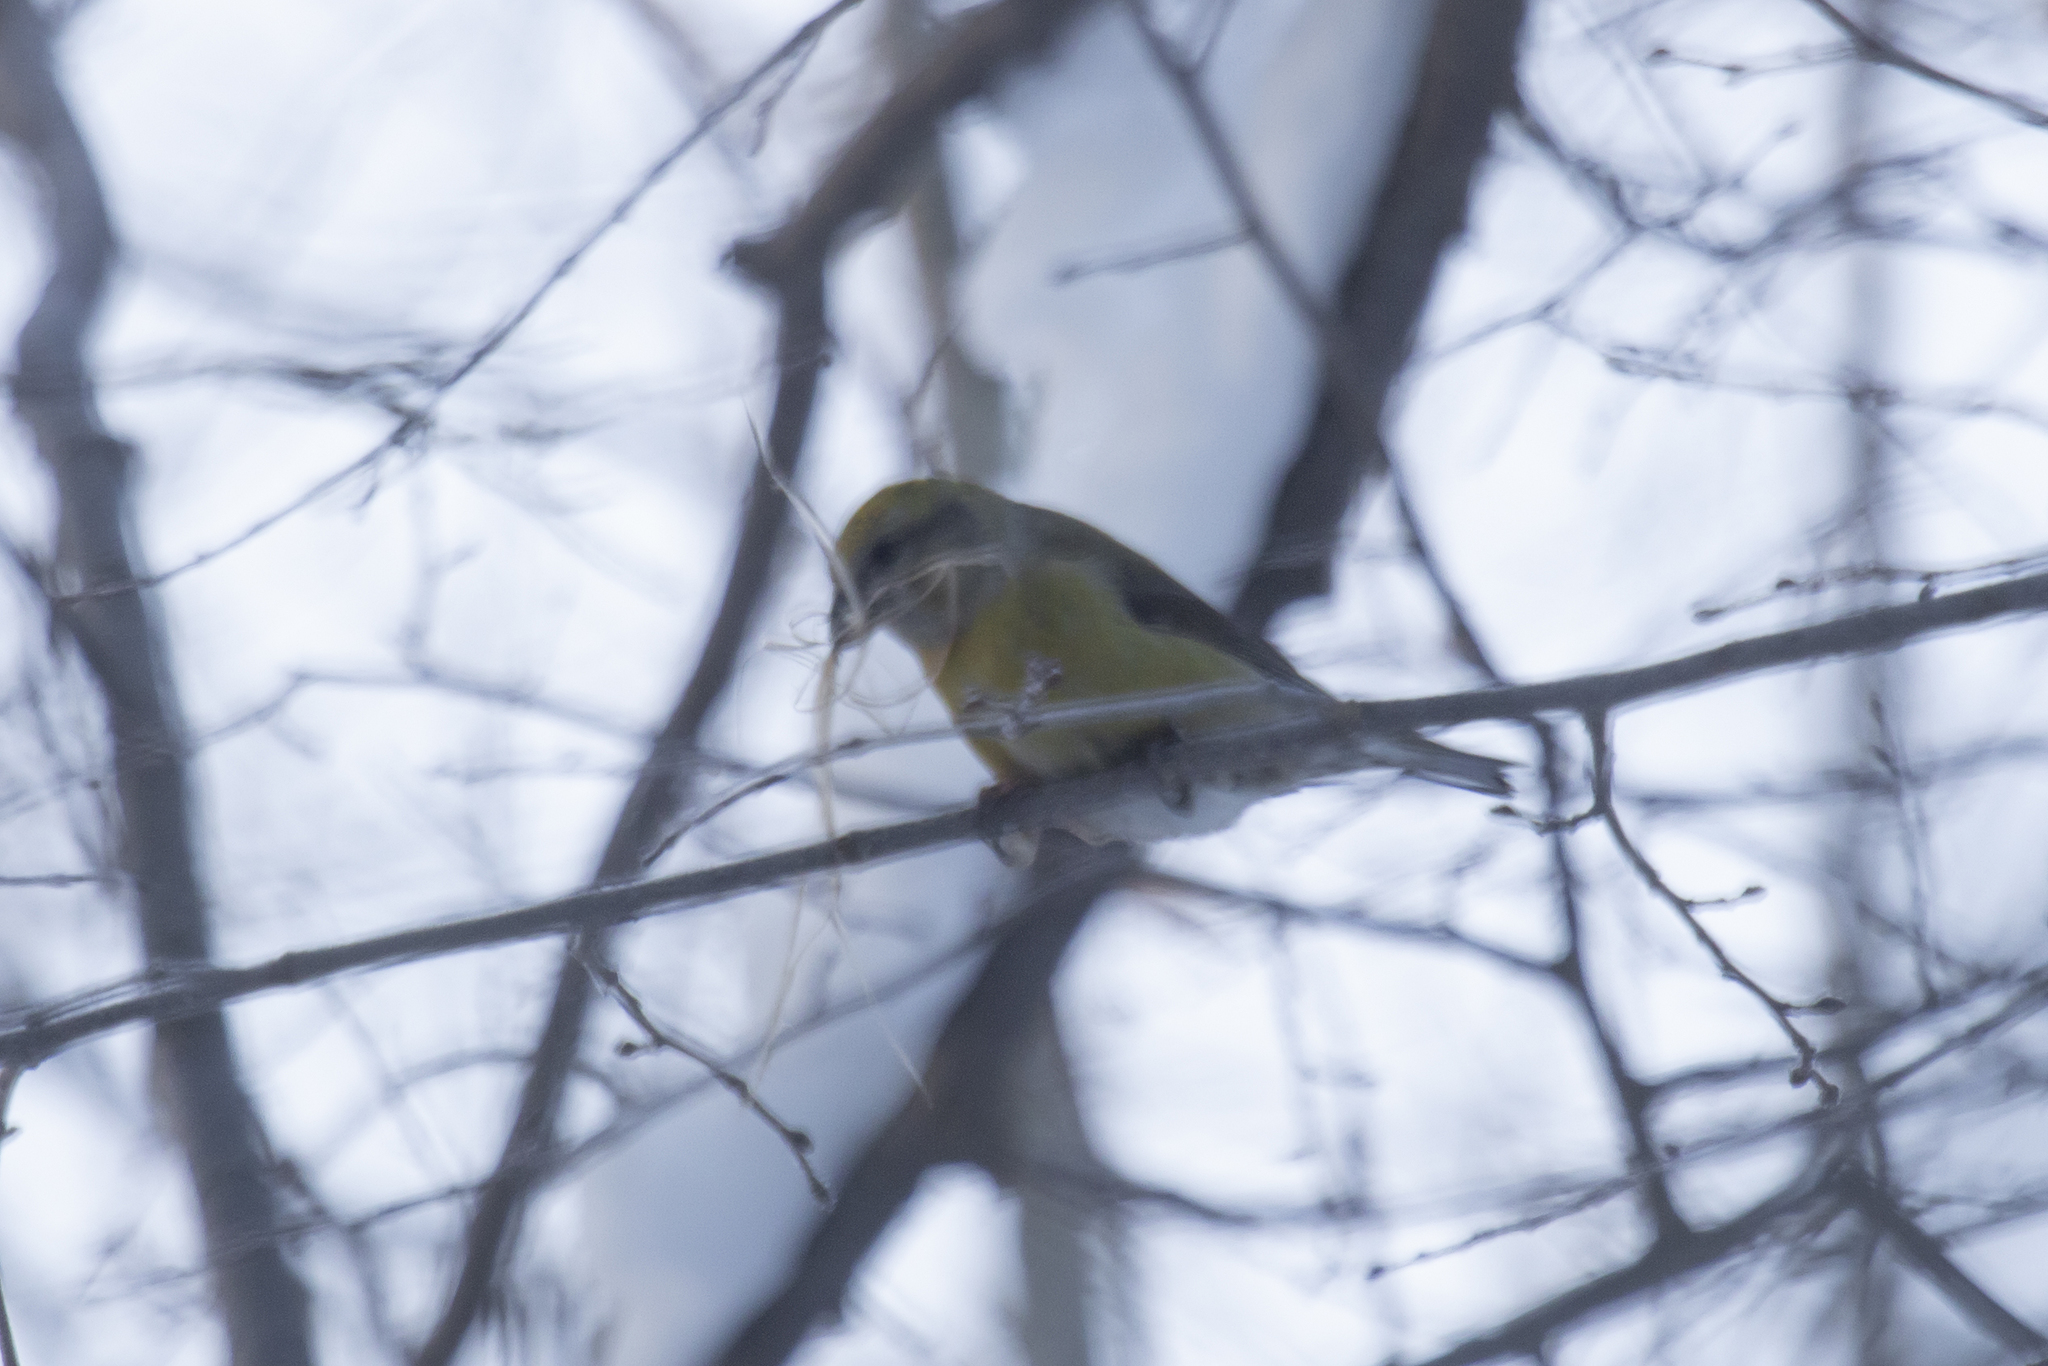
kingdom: Animalia
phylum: Chordata
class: Aves
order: Passeriformes
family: Fringillidae
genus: Loxia
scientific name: Loxia curvirostra
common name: Red crossbill
